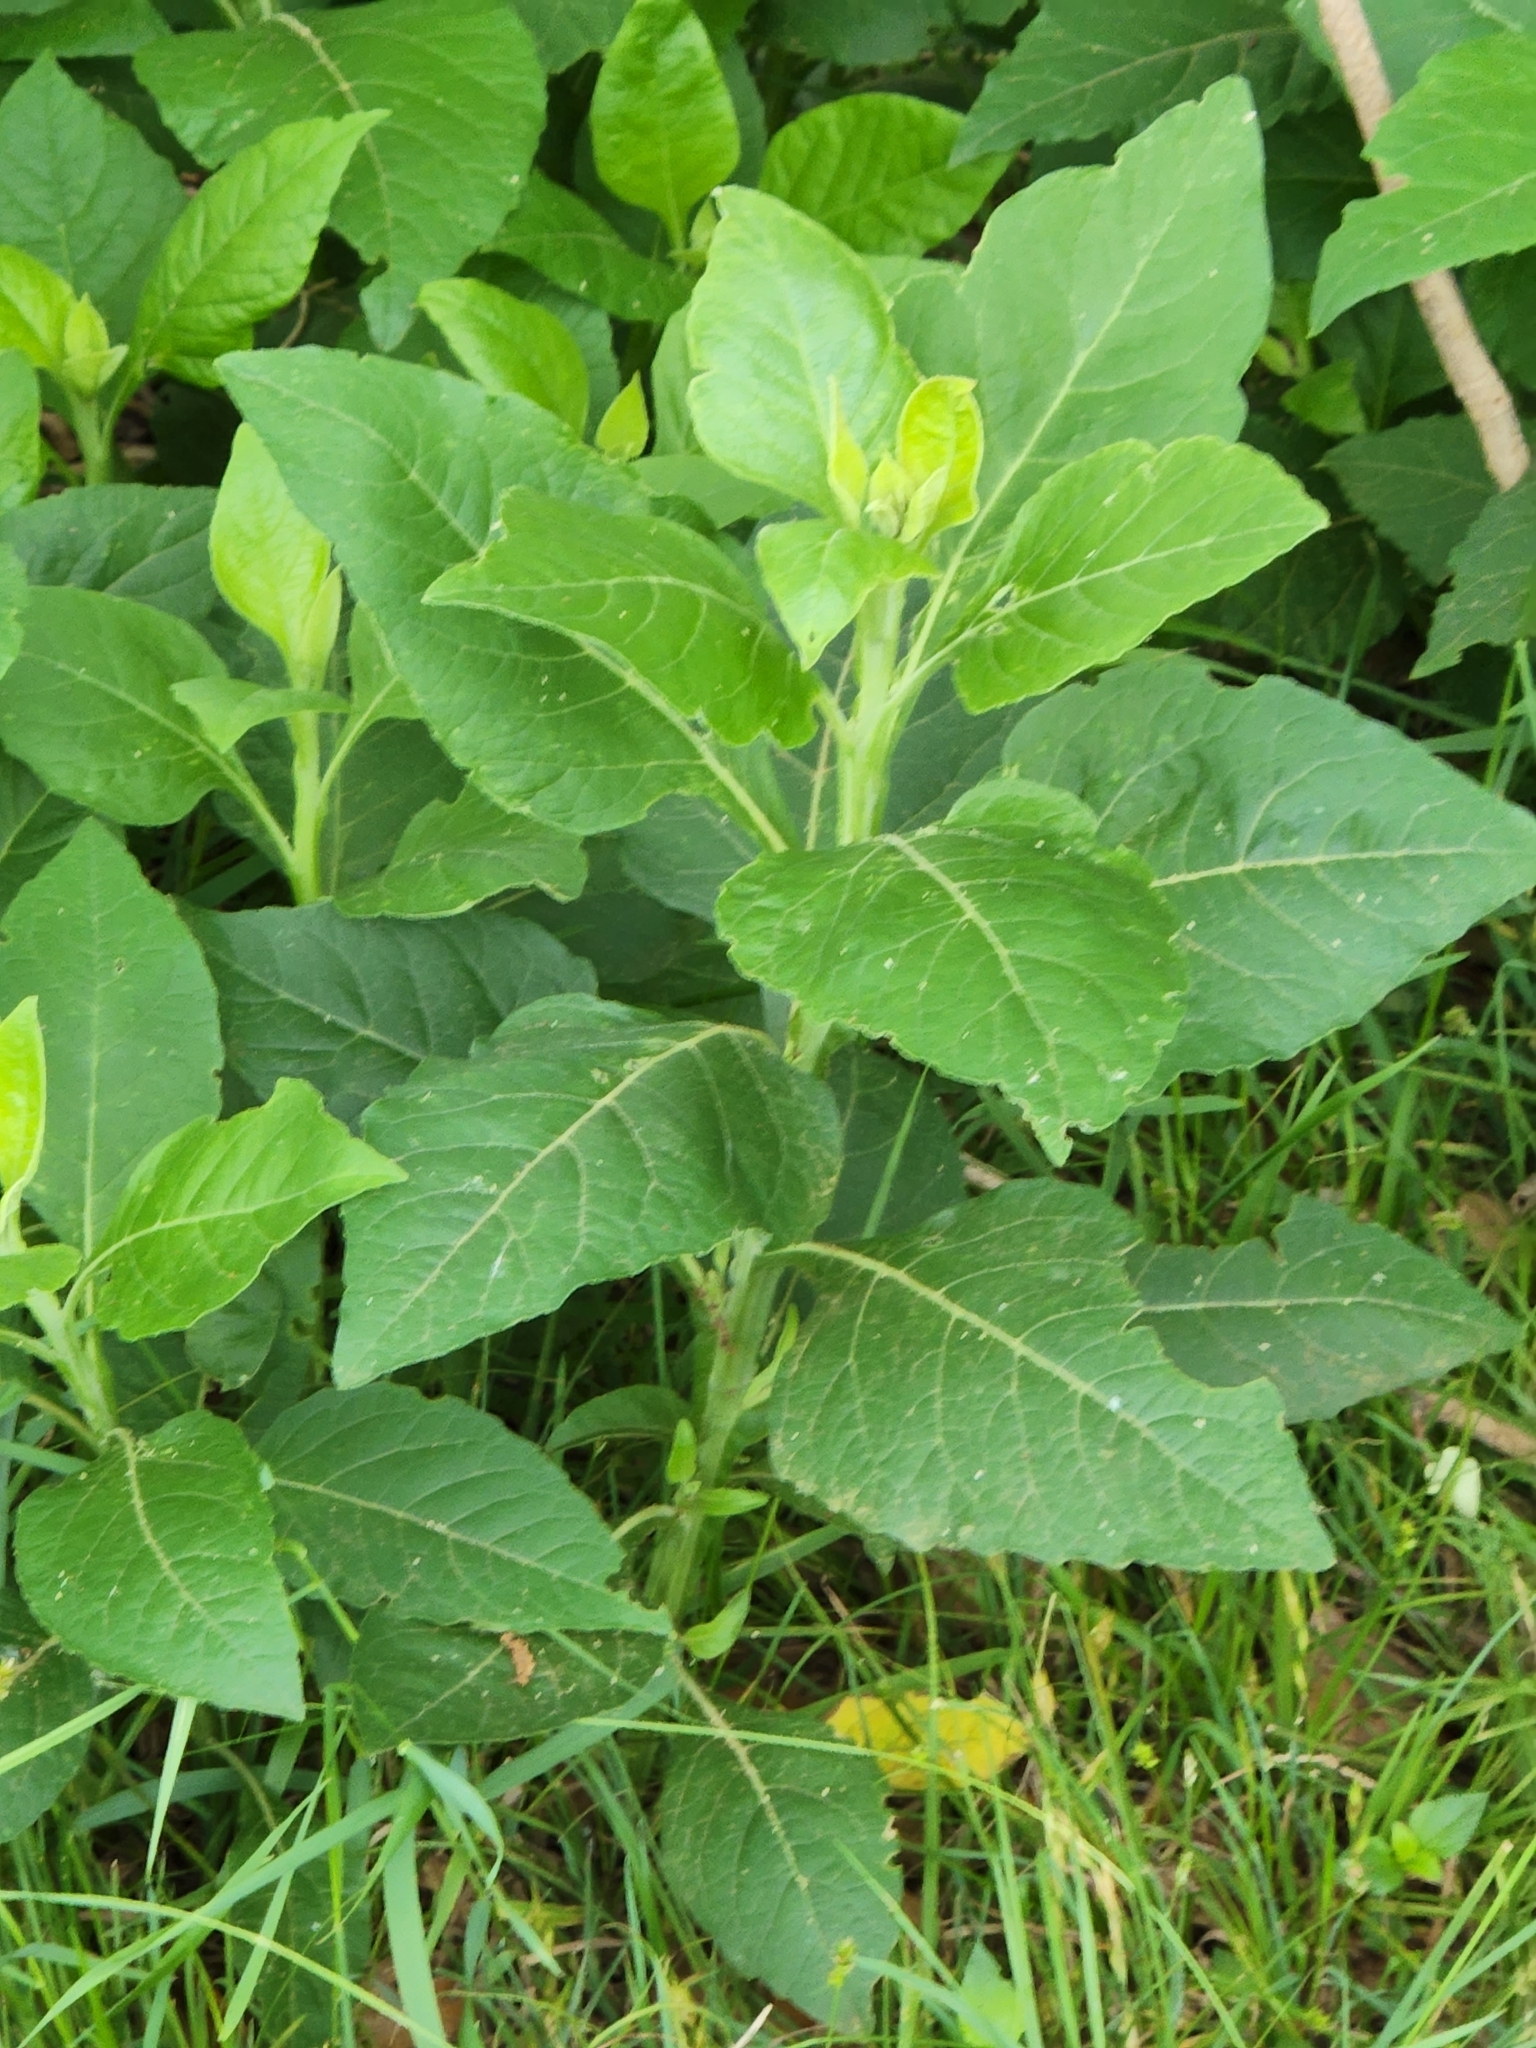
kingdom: Plantae
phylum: Tracheophyta
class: Magnoliopsida
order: Asterales
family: Asteraceae
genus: Verbesina
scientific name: Verbesina virginica
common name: Frostweed
